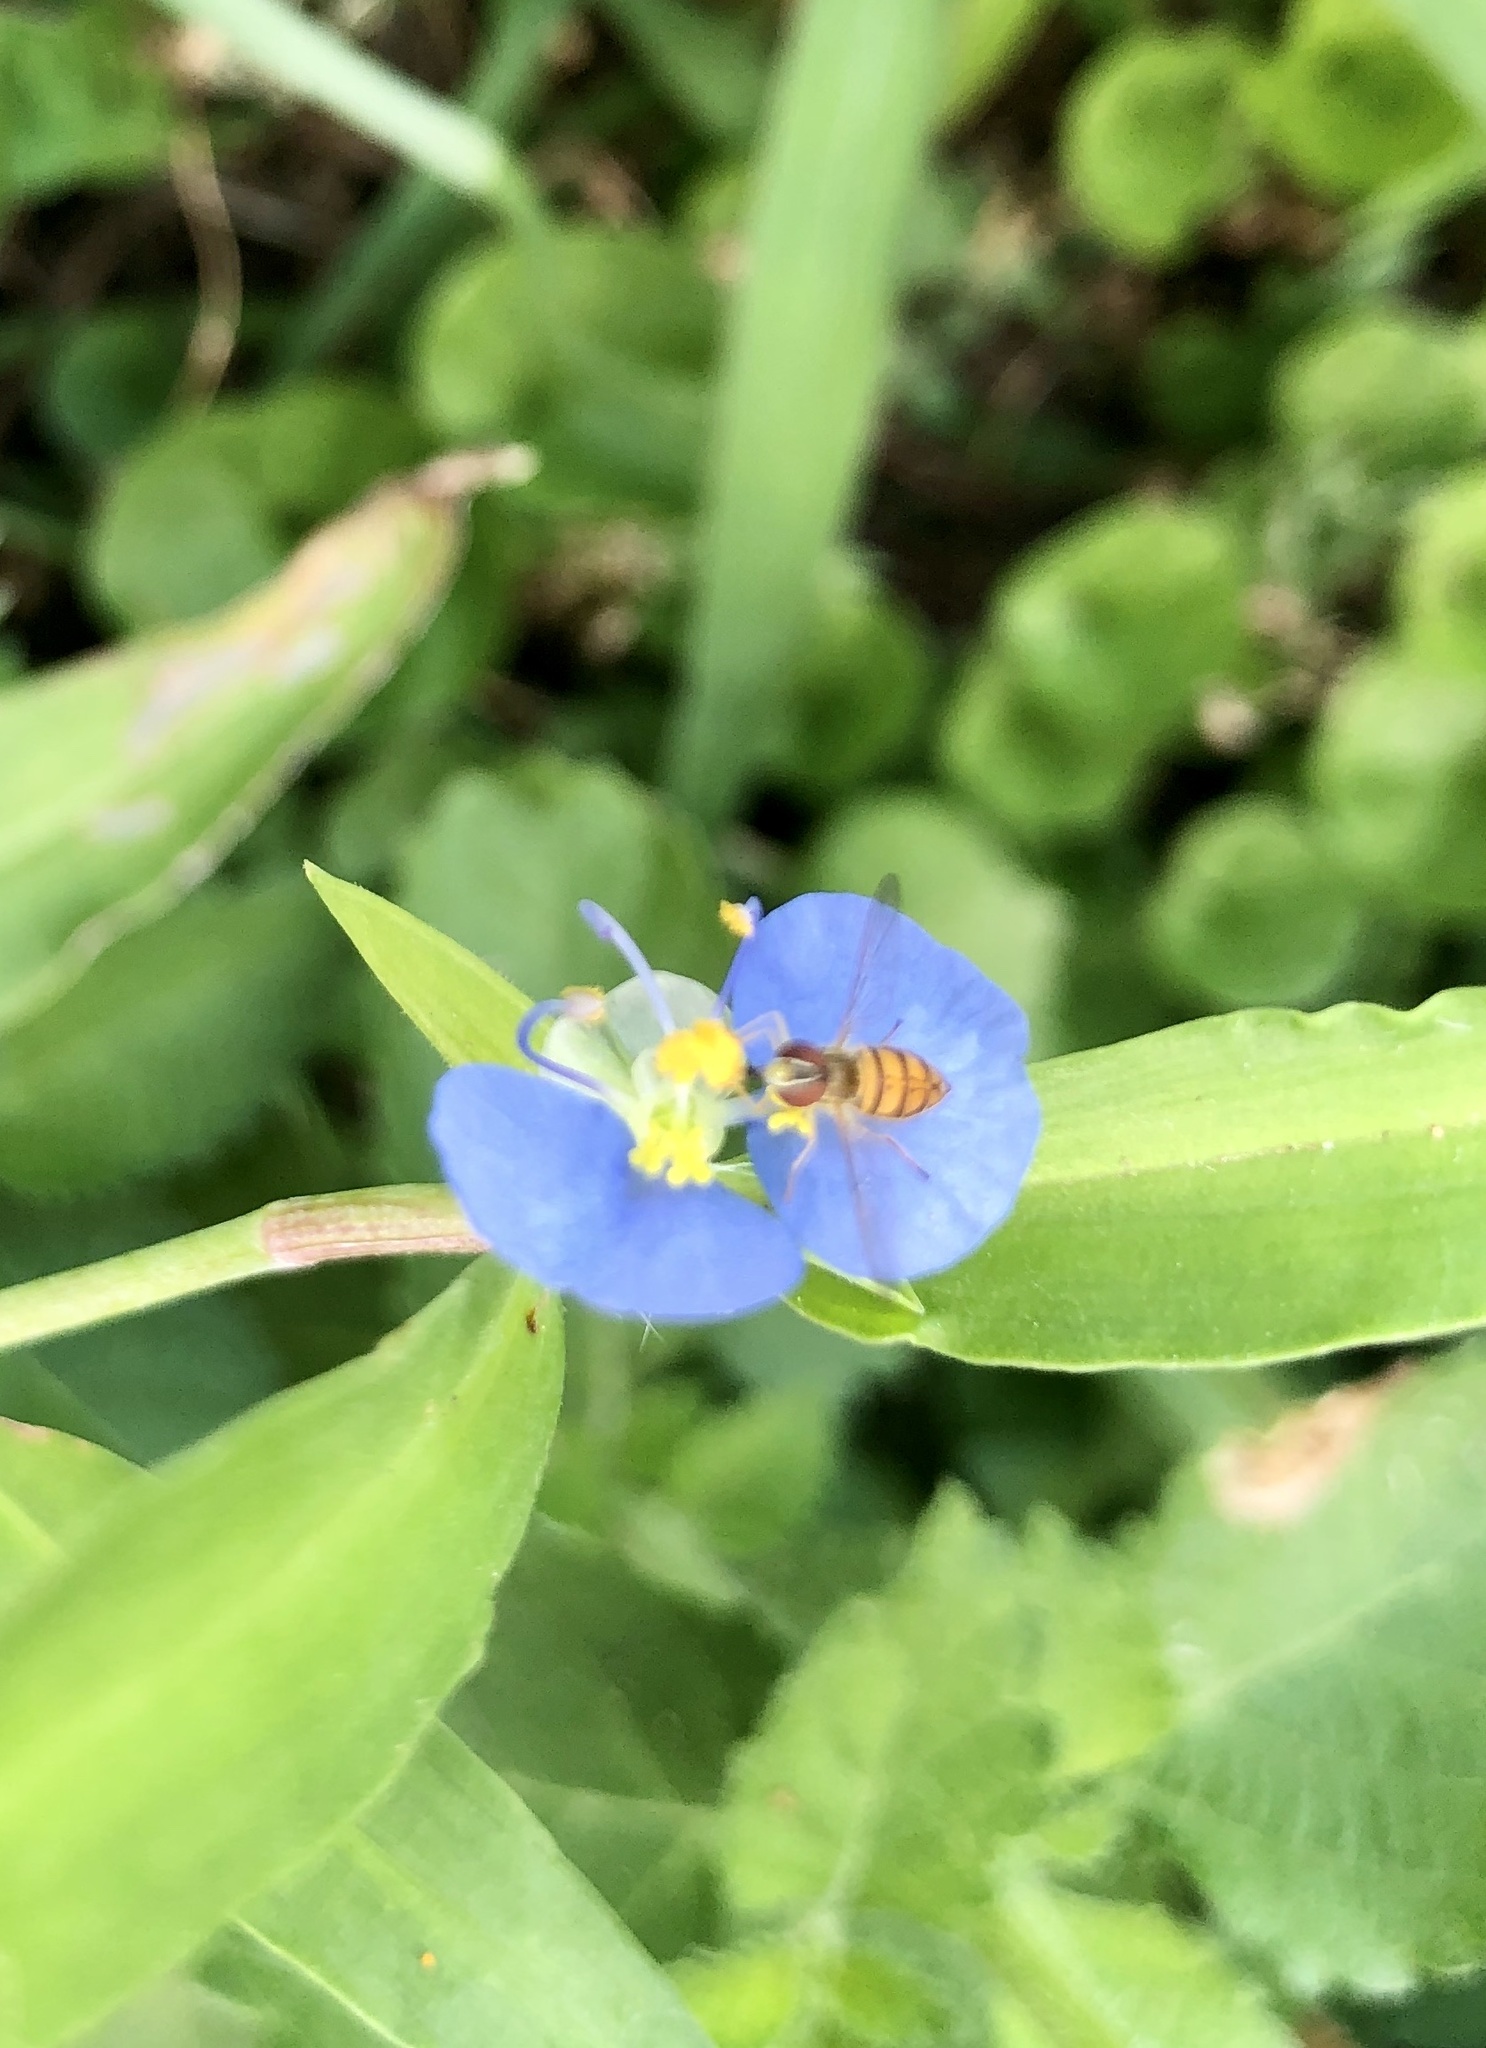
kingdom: Animalia
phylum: Arthropoda
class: Insecta
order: Diptera
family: Syrphidae
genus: Toxomerus
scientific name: Toxomerus marginatus
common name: Syrphid fly
